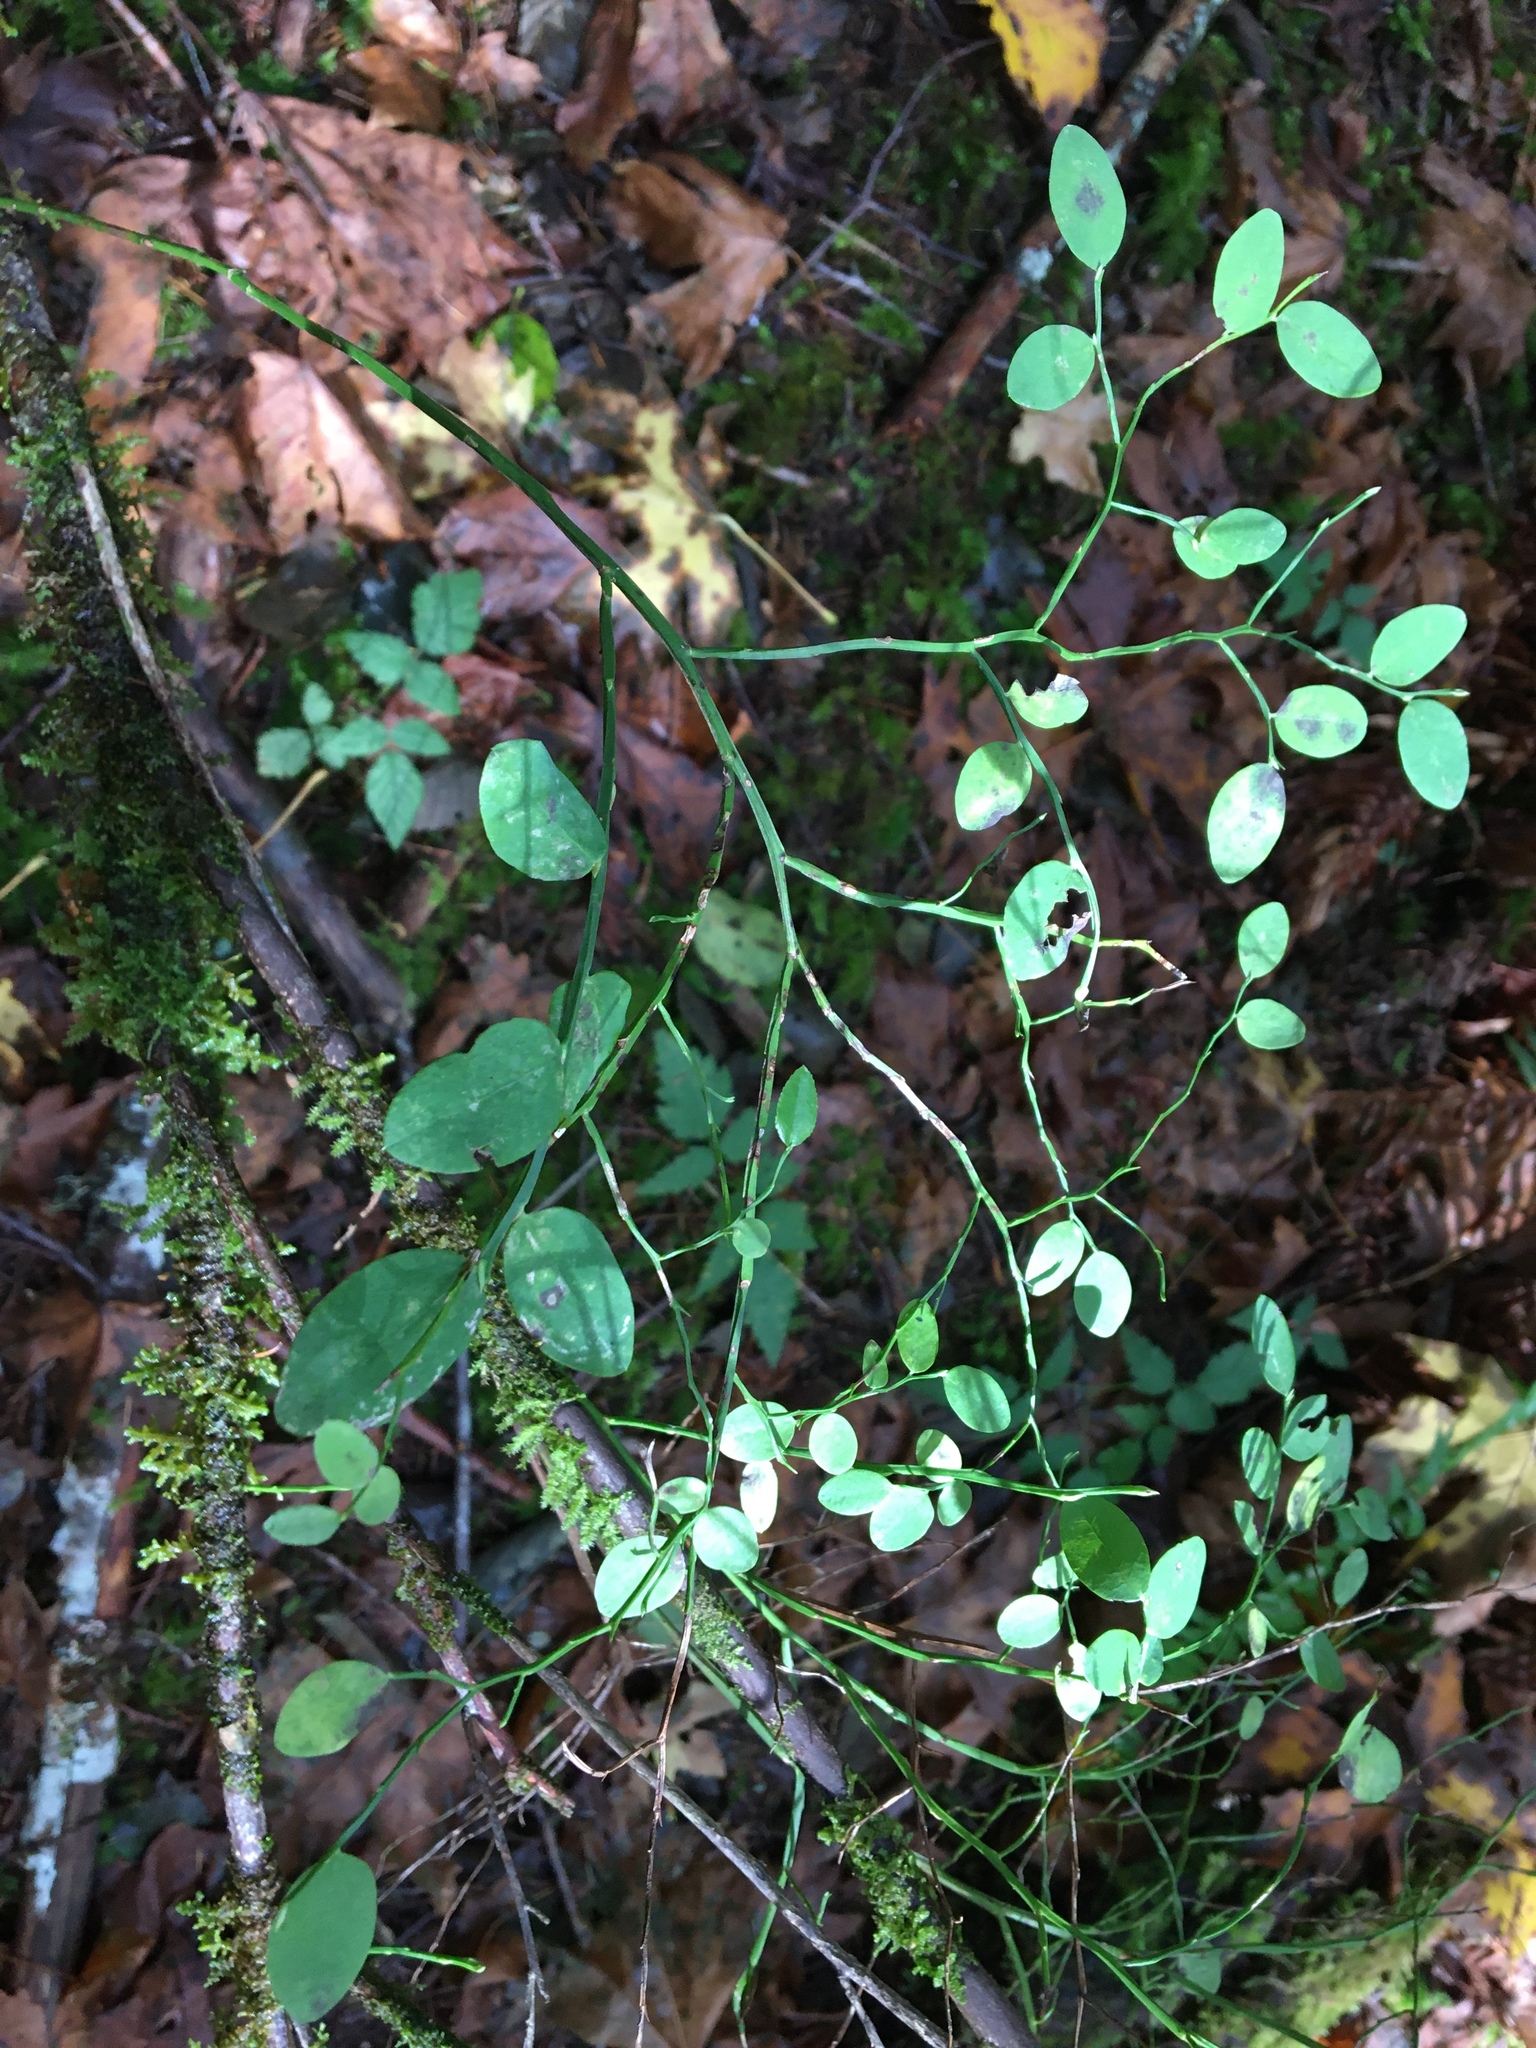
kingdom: Plantae
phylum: Tracheophyta
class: Magnoliopsida
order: Ericales
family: Ericaceae
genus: Vaccinium
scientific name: Vaccinium parvifolium
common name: Red-huckleberry
